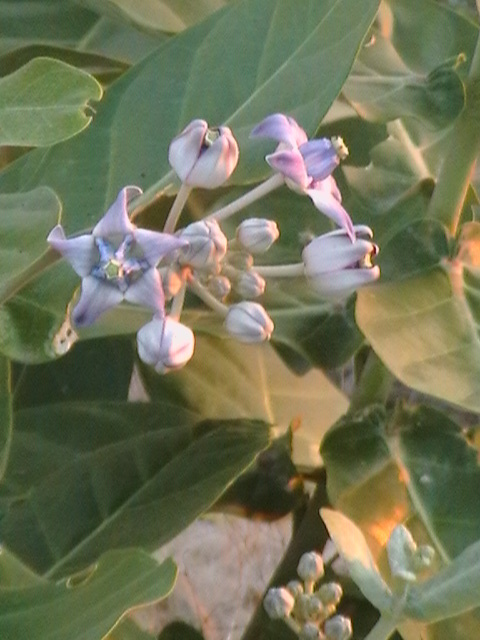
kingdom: Plantae
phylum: Tracheophyta
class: Magnoliopsida
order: Gentianales
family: Apocynaceae
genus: Calotropis
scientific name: Calotropis gigantea
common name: Crown flower
